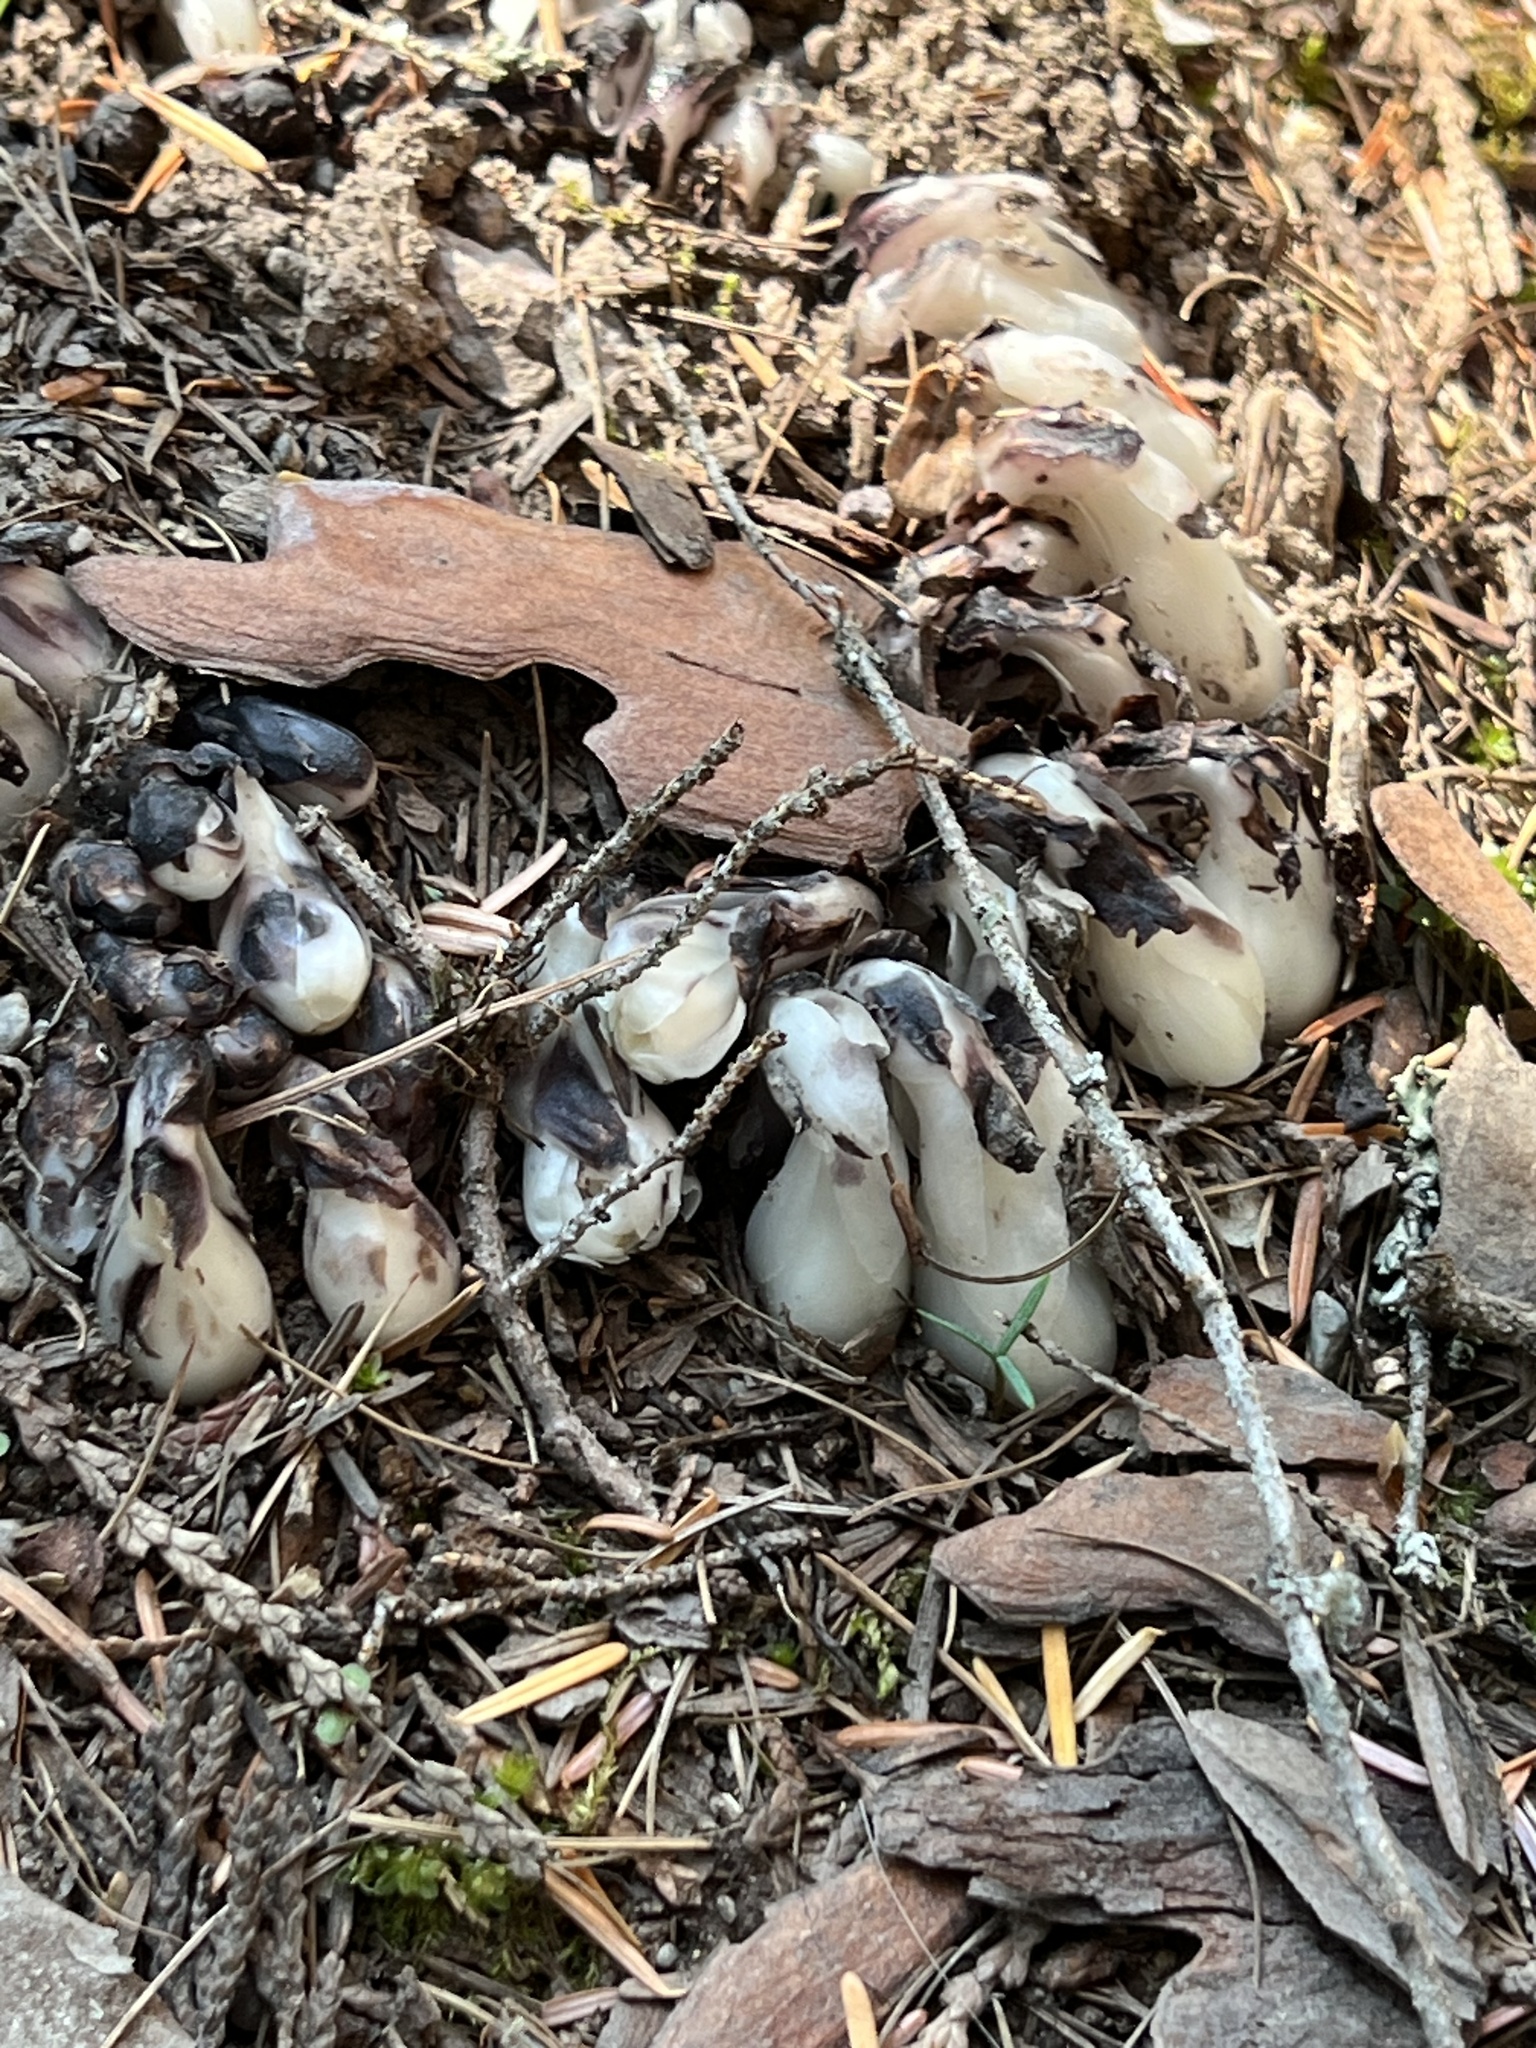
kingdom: Plantae
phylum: Tracheophyta
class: Magnoliopsida
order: Ericales
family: Ericaceae
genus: Monotropa
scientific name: Monotropa uniflora
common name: Convulsion root
